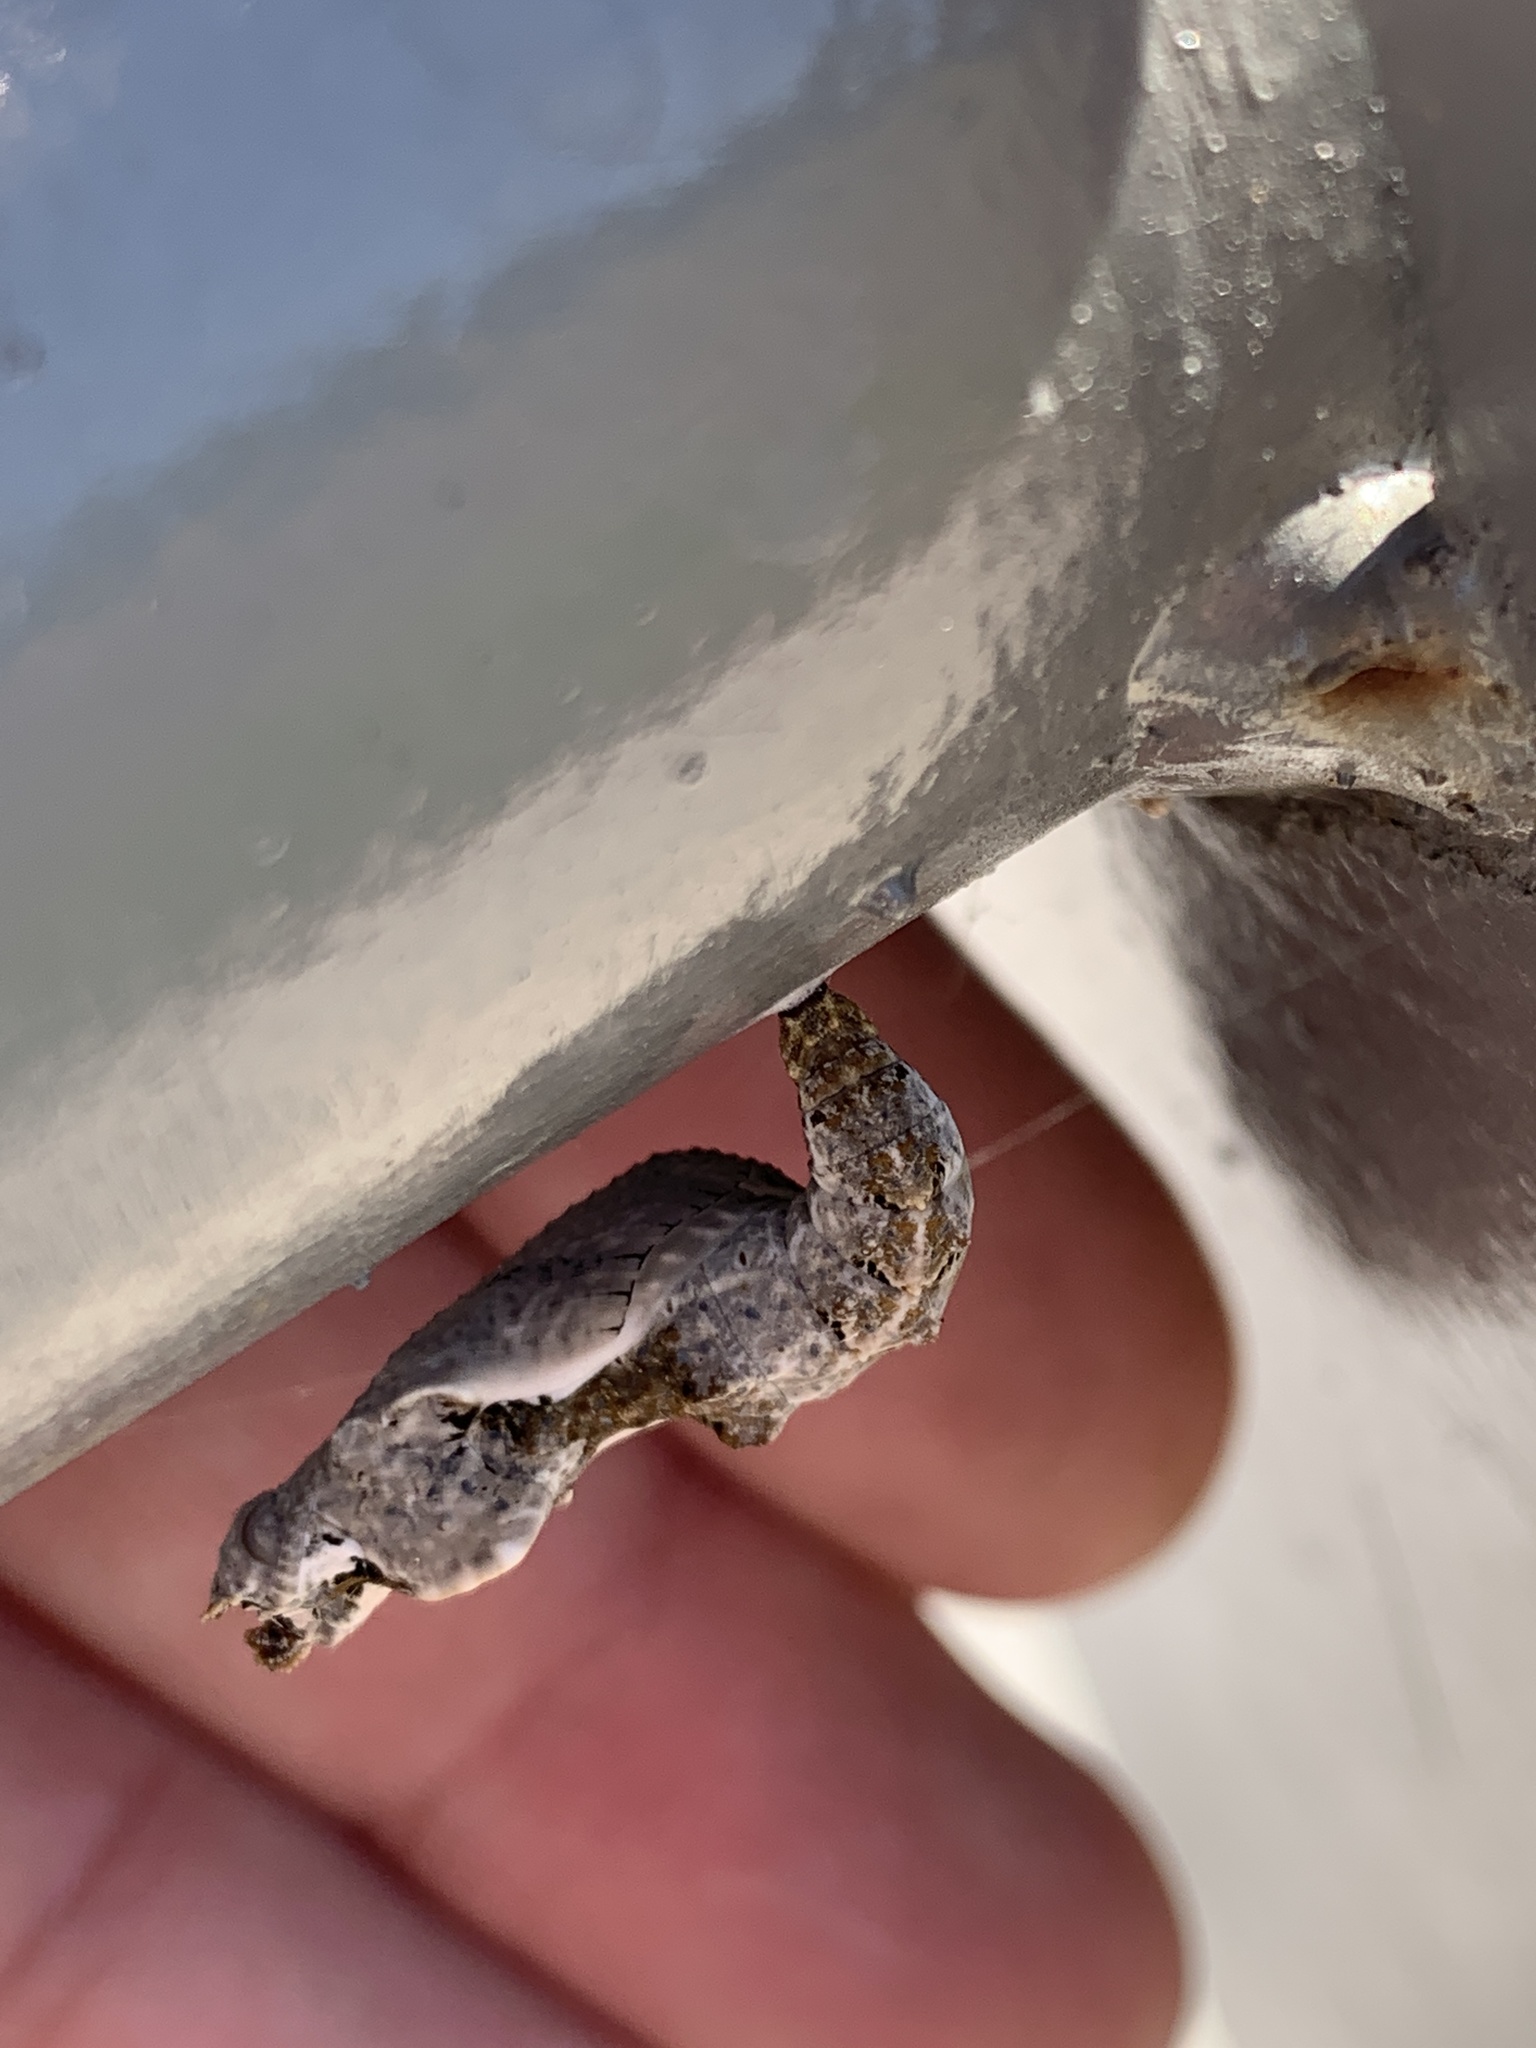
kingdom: Animalia
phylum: Arthropoda
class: Insecta
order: Lepidoptera
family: Nymphalidae
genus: Dione
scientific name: Dione vanillae
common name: Gulf fritillary
